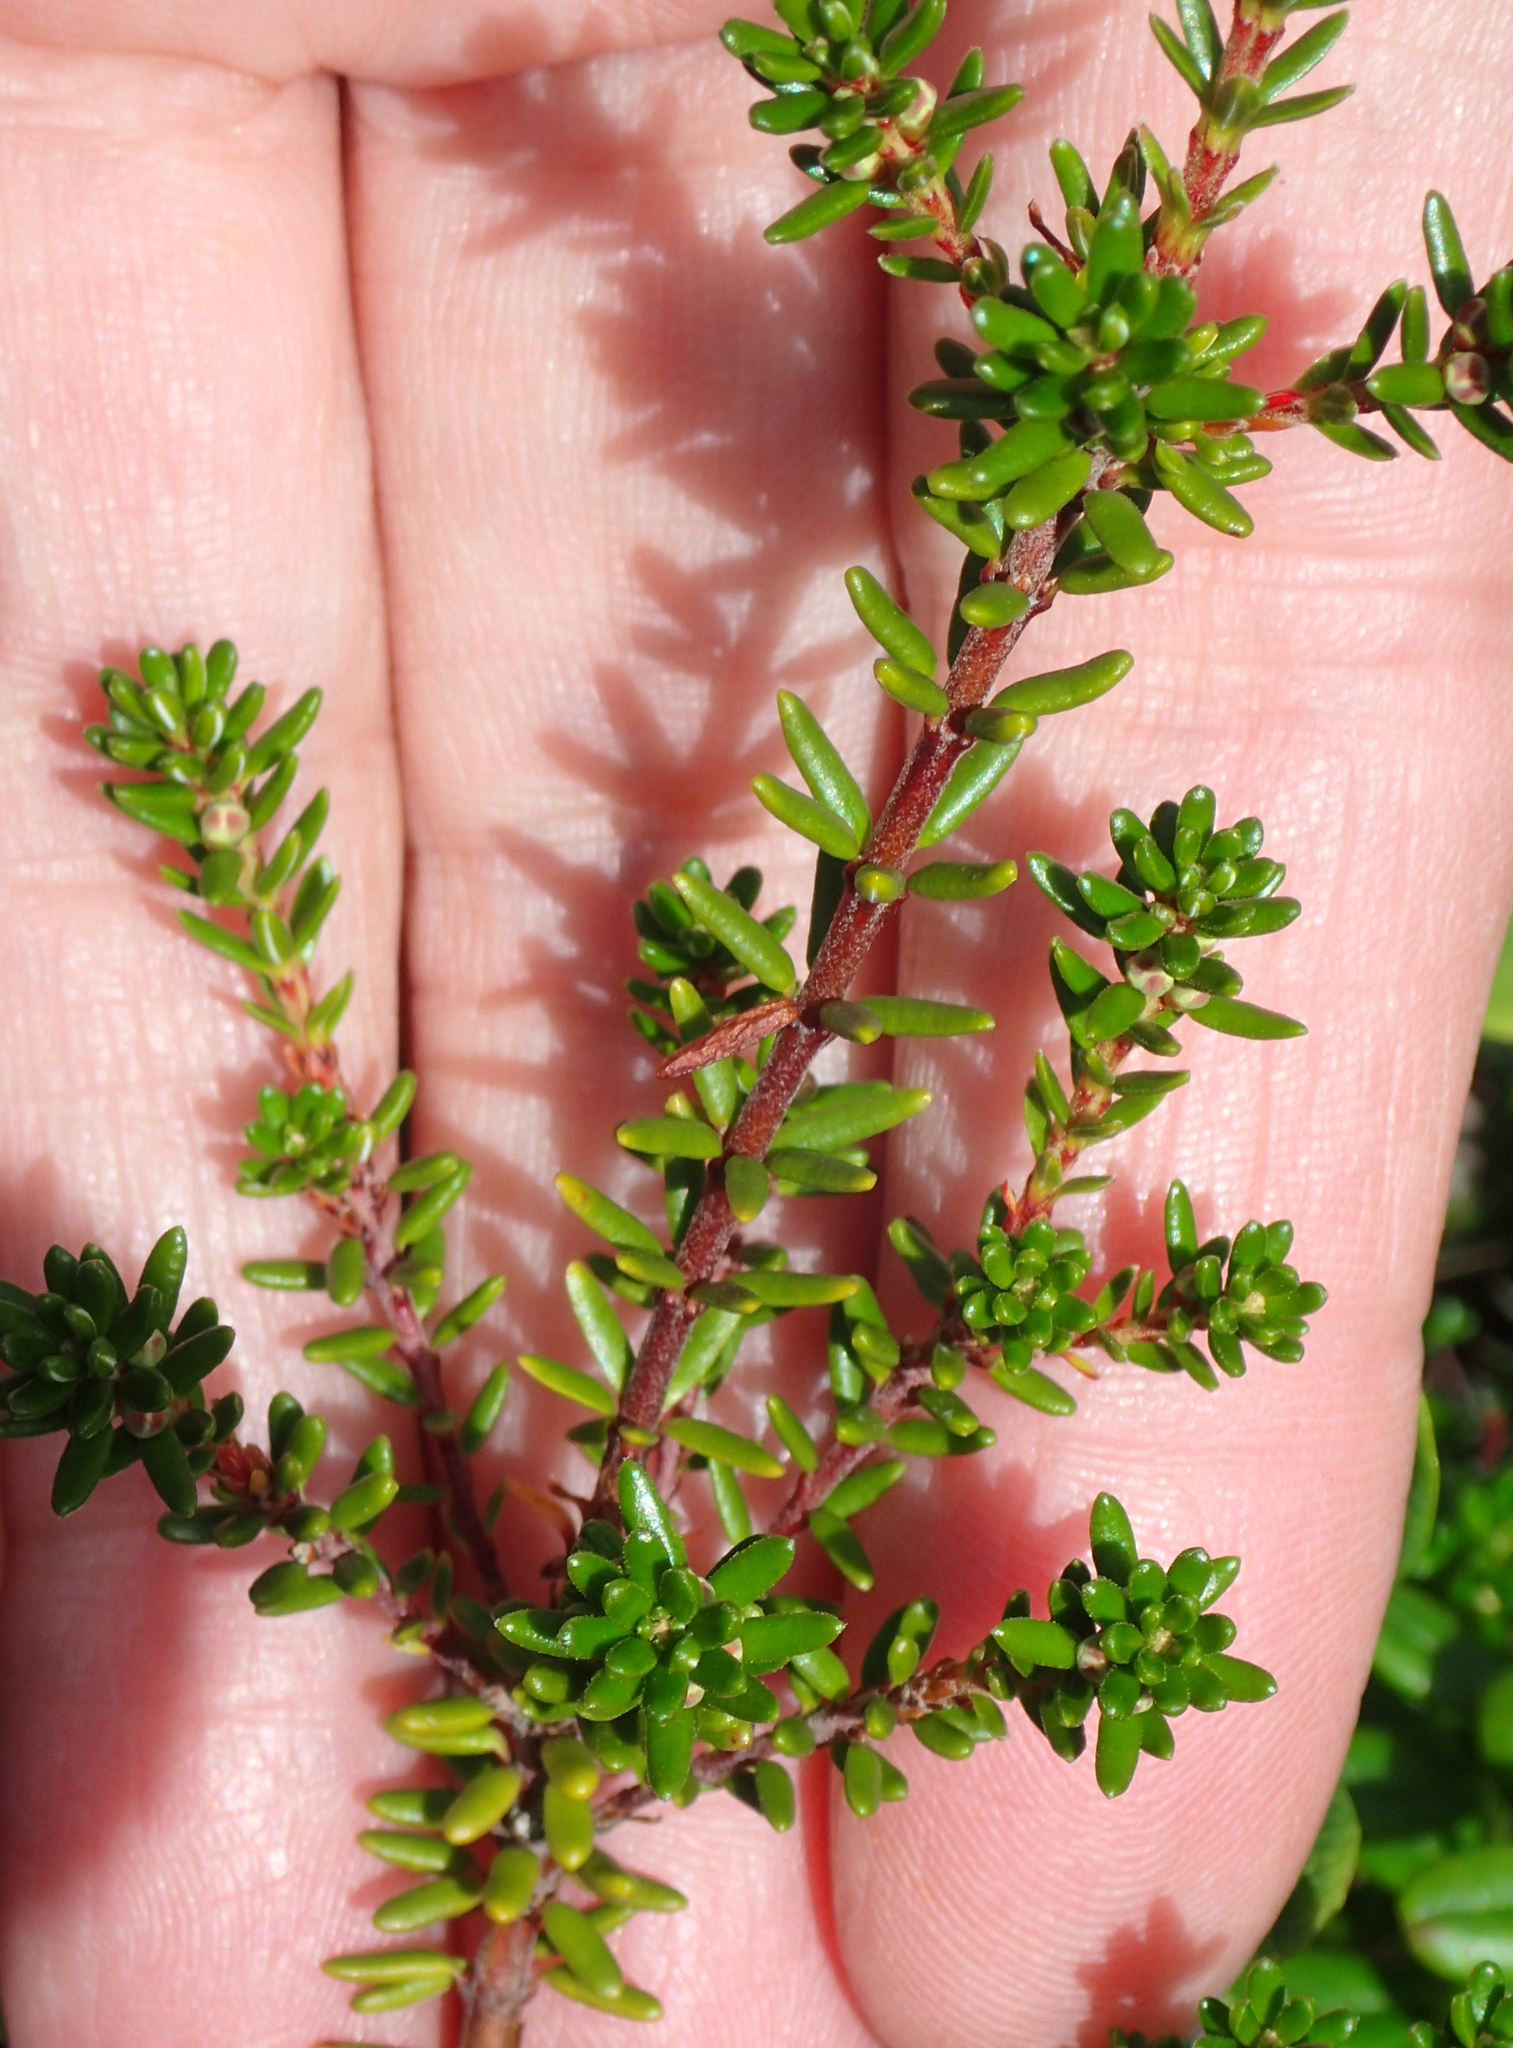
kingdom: Plantae
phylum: Tracheophyta
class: Magnoliopsida
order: Ericales
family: Ericaceae
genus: Empetrum
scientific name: Empetrum nigrum
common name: Black crowberry
